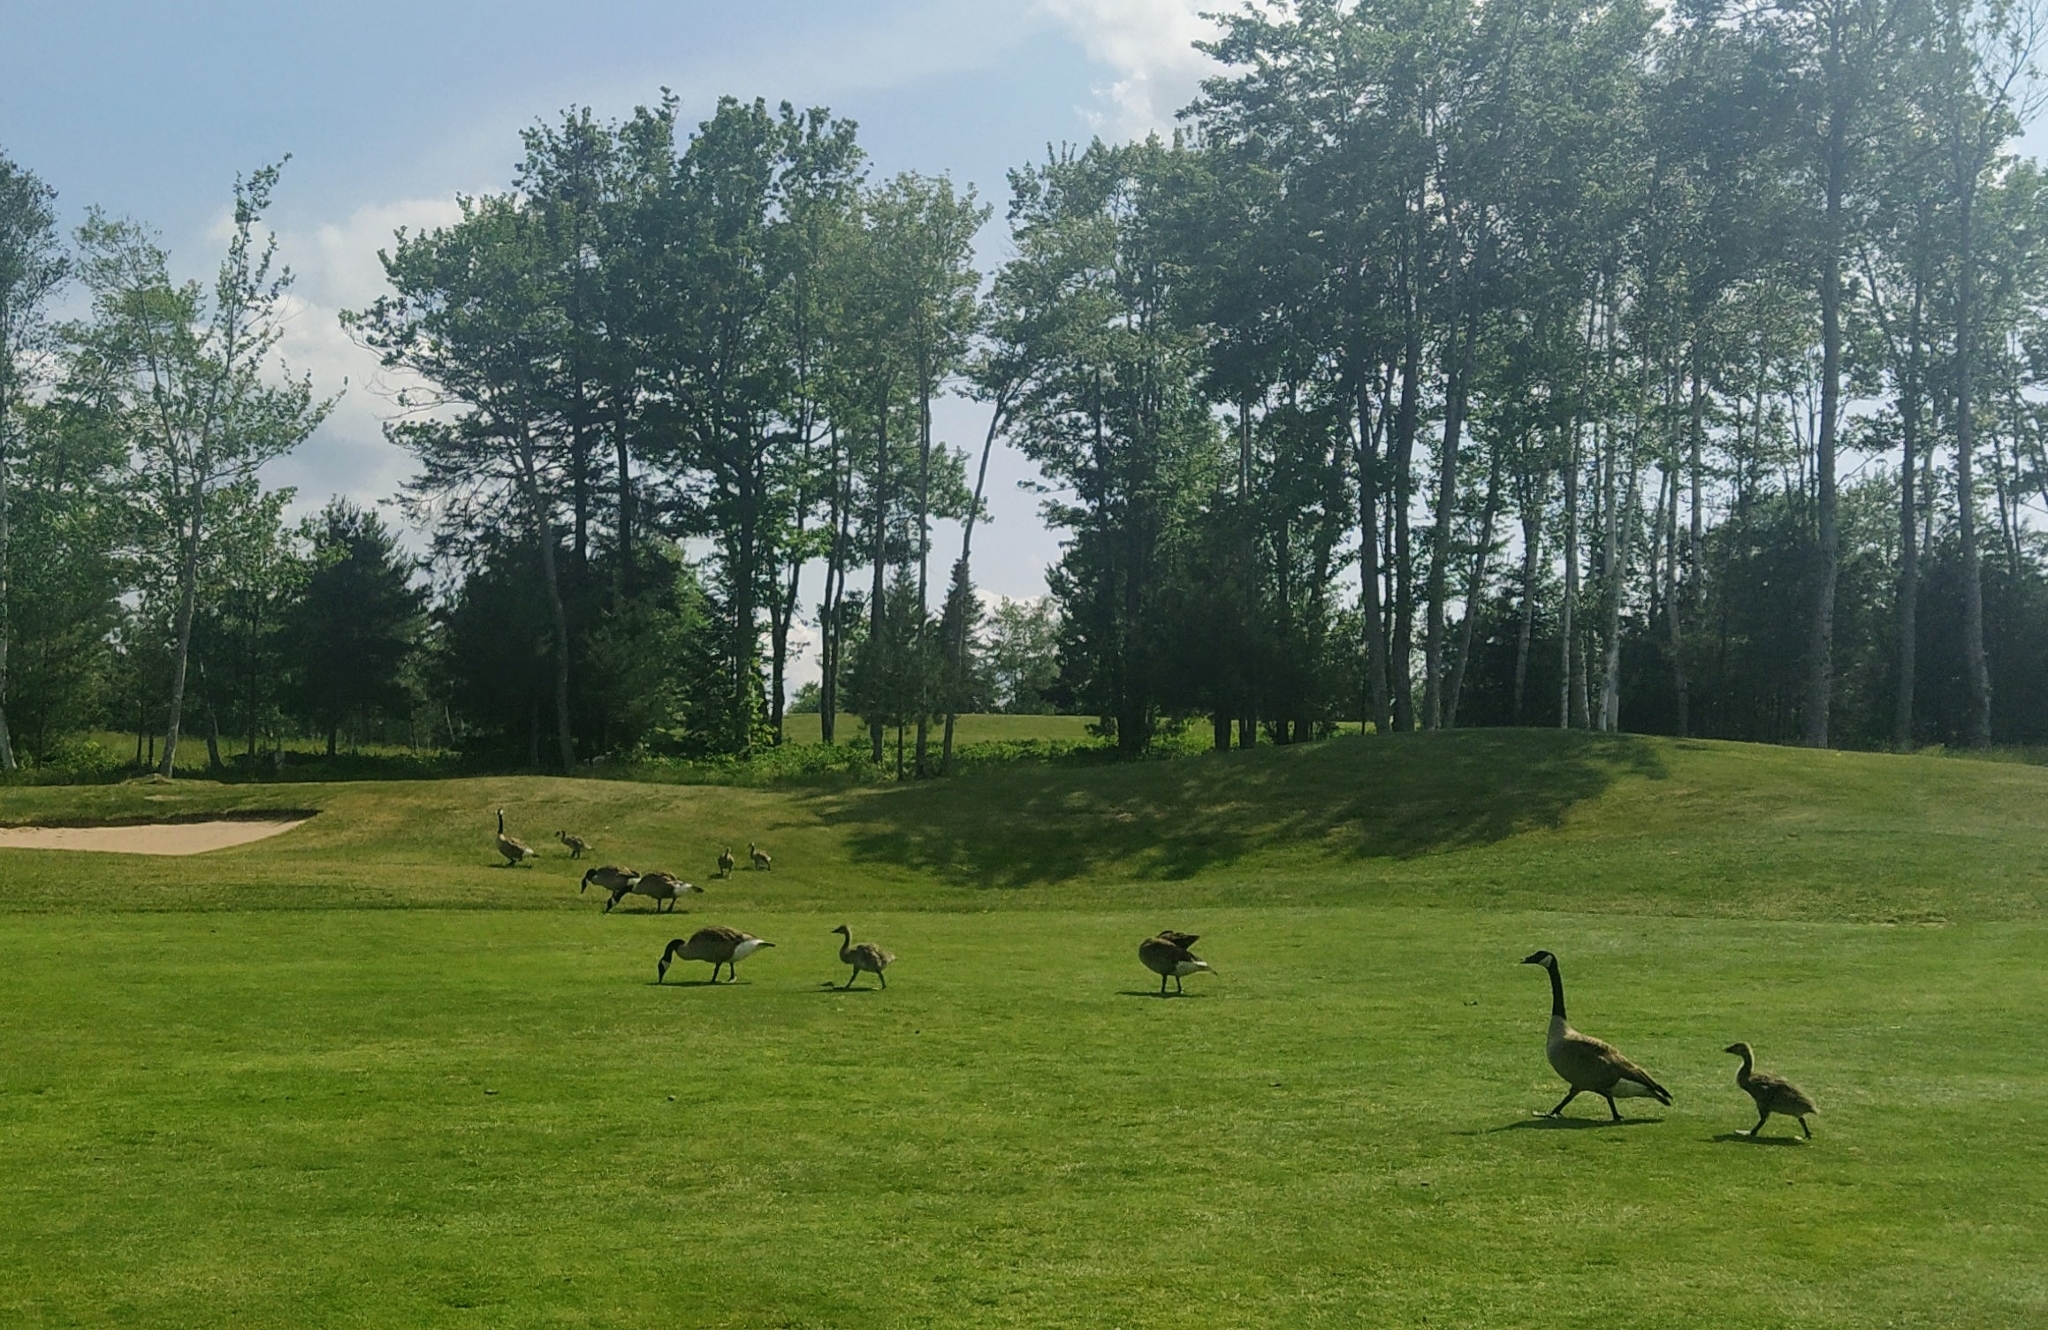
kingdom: Animalia
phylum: Chordata
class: Aves
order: Anseriformes
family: Anatidae
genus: Branta
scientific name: Branta canadensis
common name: Canada goose
